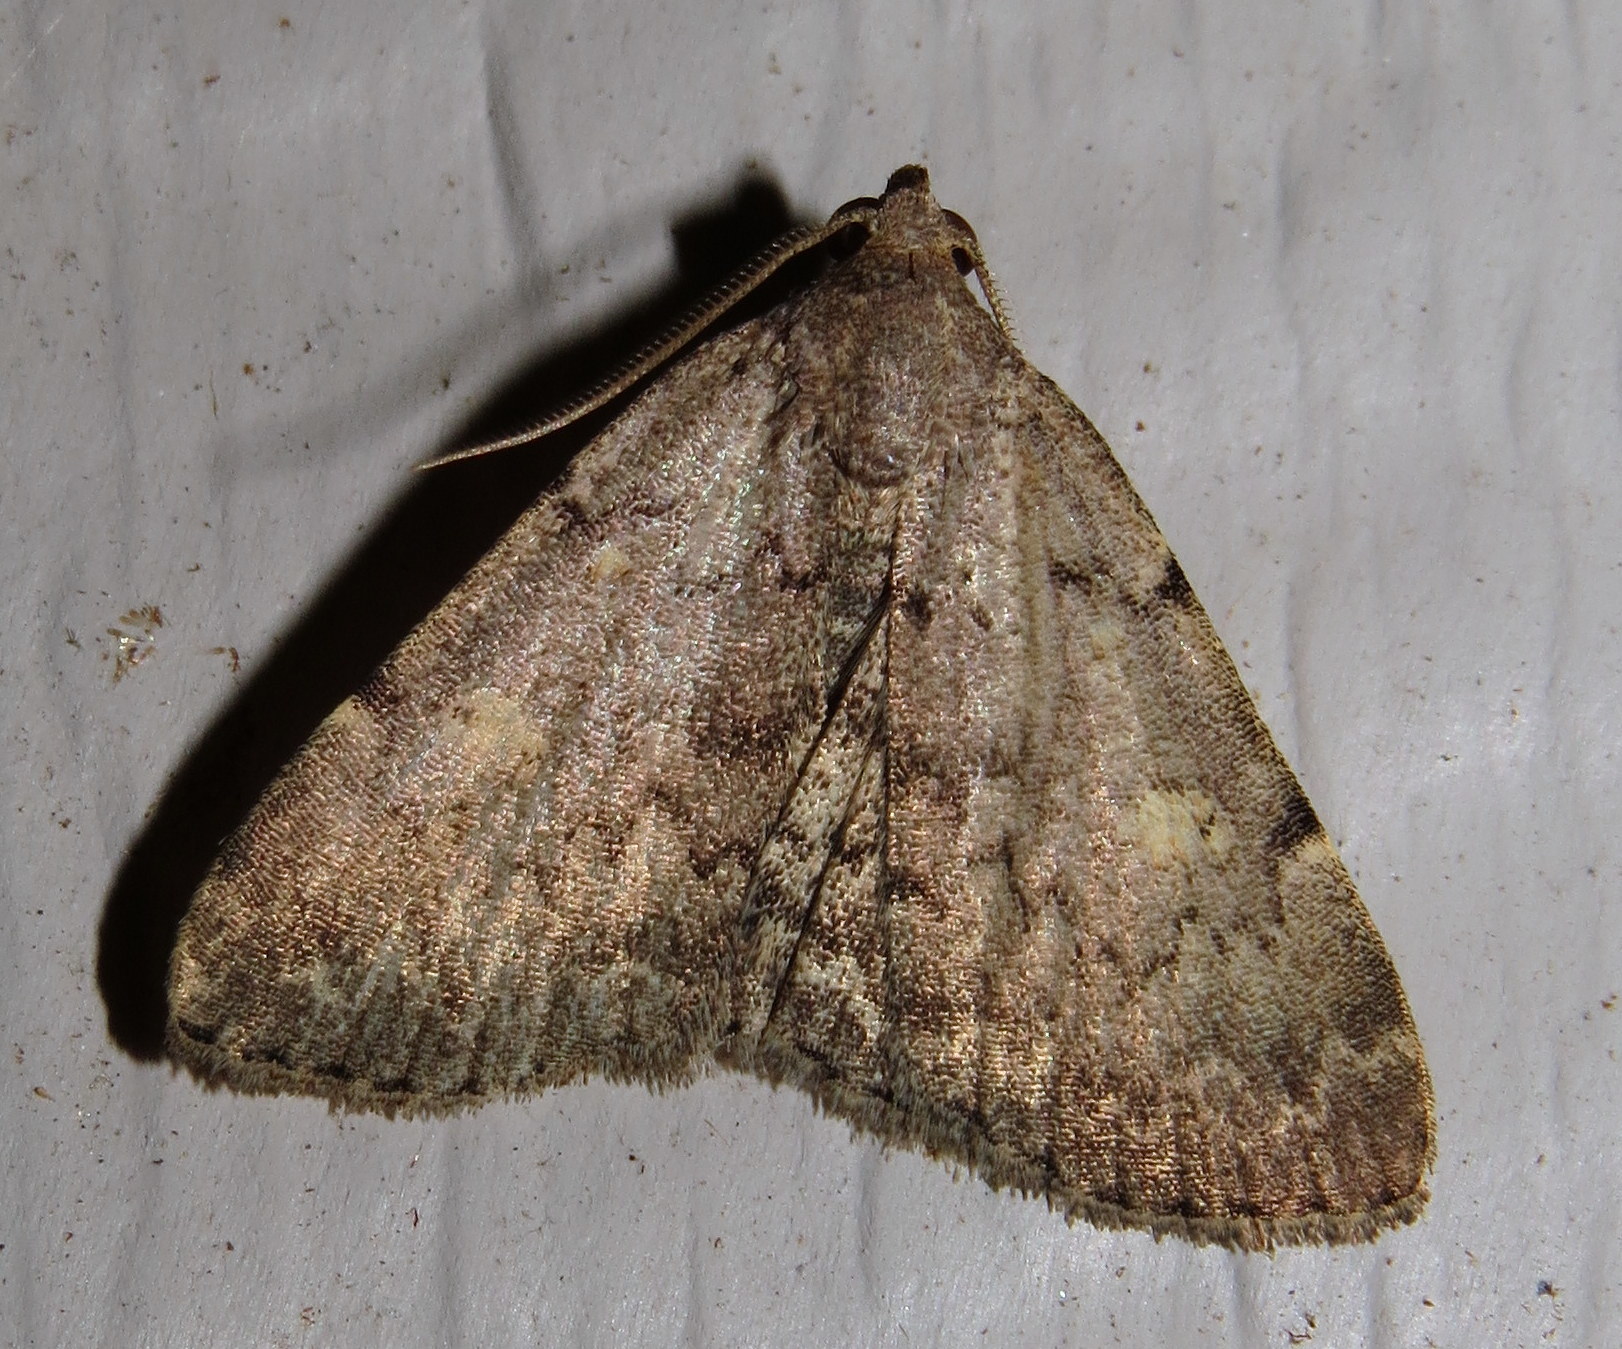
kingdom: Animalia
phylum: Arthropoda
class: Insecta
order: Lepidoptera
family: Erebidae
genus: Idia
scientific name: Idia aemula
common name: Common idia moth
